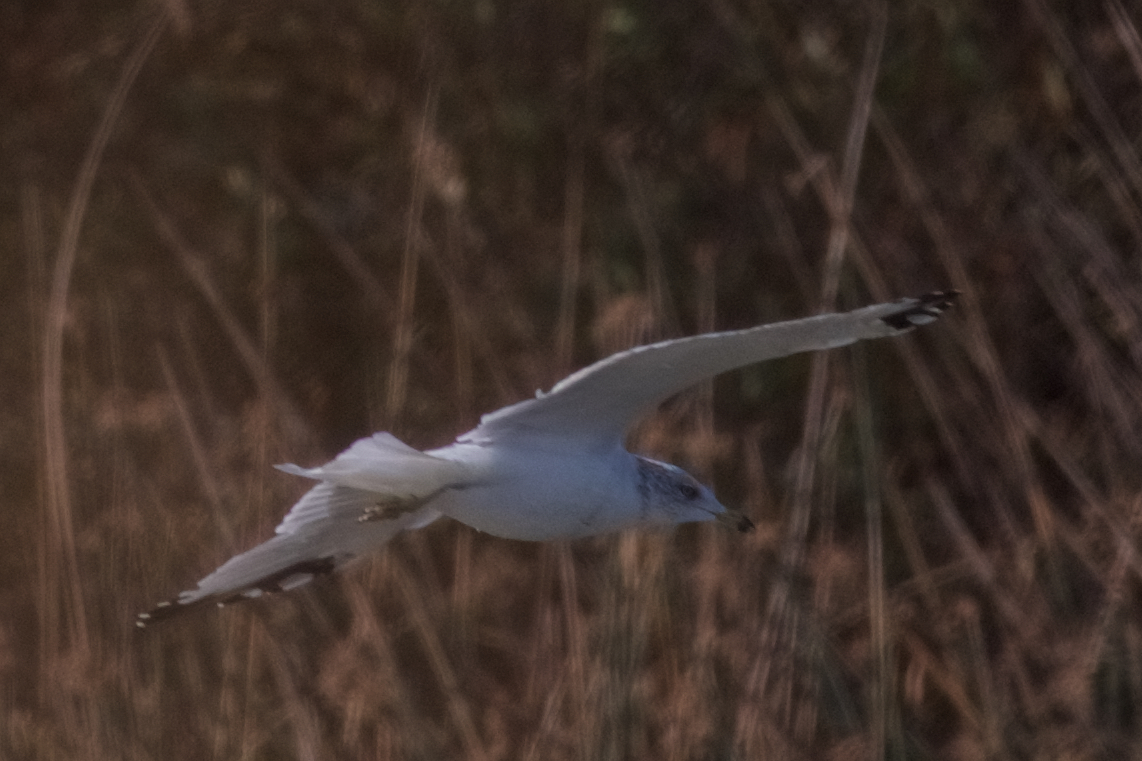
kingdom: Animalia
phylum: Chordata
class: Aves
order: Charadriiformes
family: Laridae
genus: Larus
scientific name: Larus delawarensis
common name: Ring-billed gull
